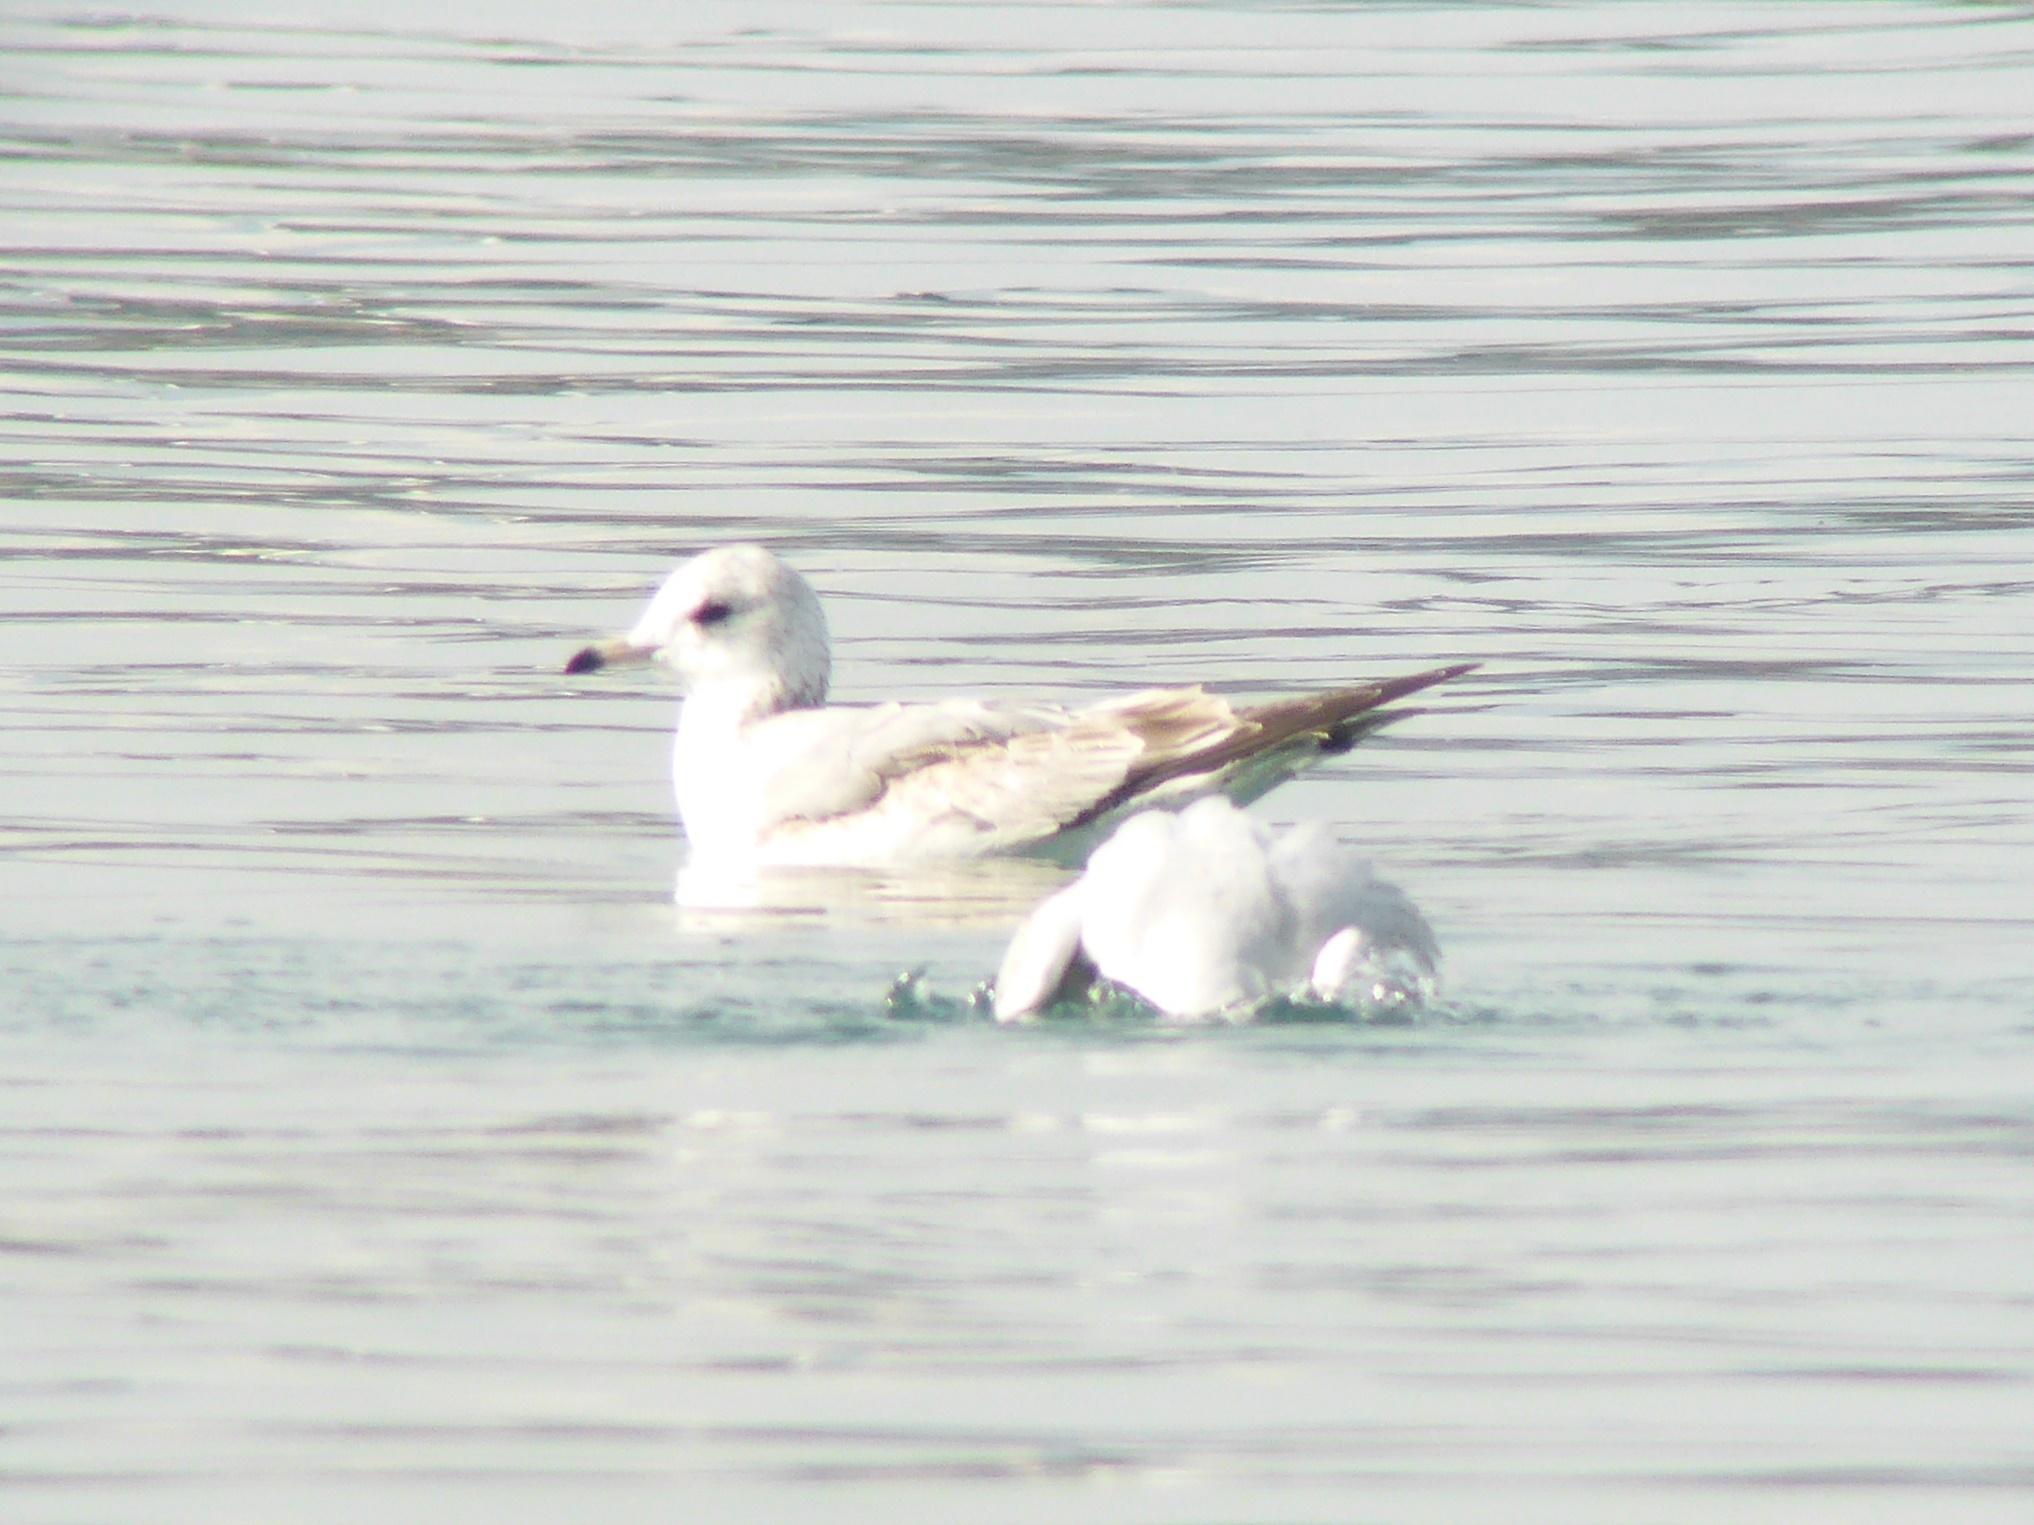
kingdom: Animalia
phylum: Chordata
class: Aves
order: Charadriiformes
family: Laridae
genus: Larus
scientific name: Larus canus
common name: Mew gull
